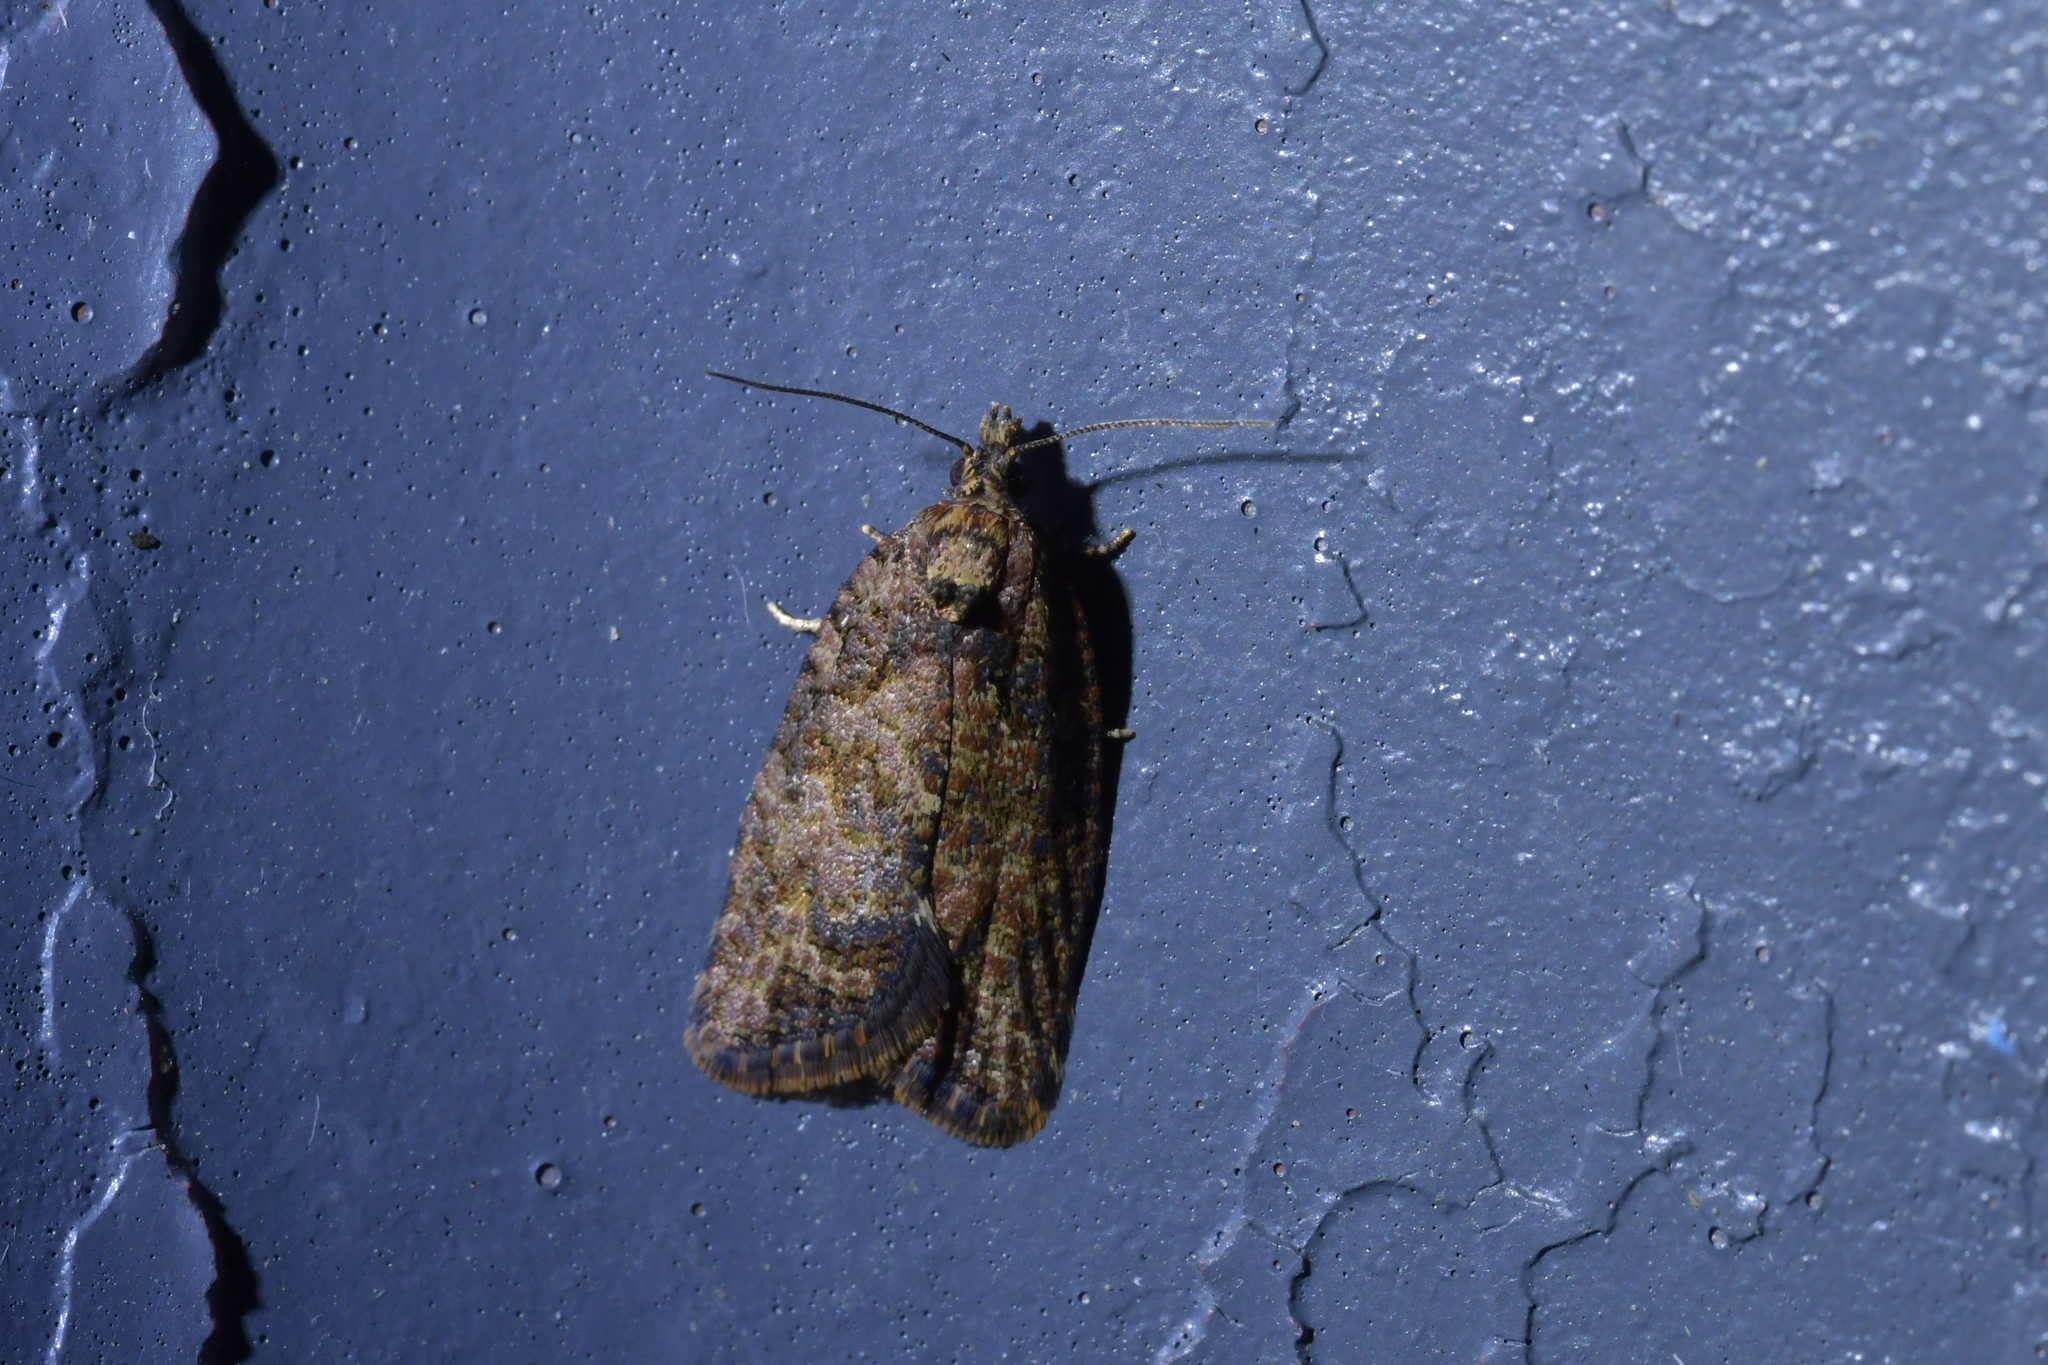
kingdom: Animalia
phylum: Arthropoda
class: Insecta
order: Lepidoptera
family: Tortricidae
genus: Capua
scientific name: Capua intractana
